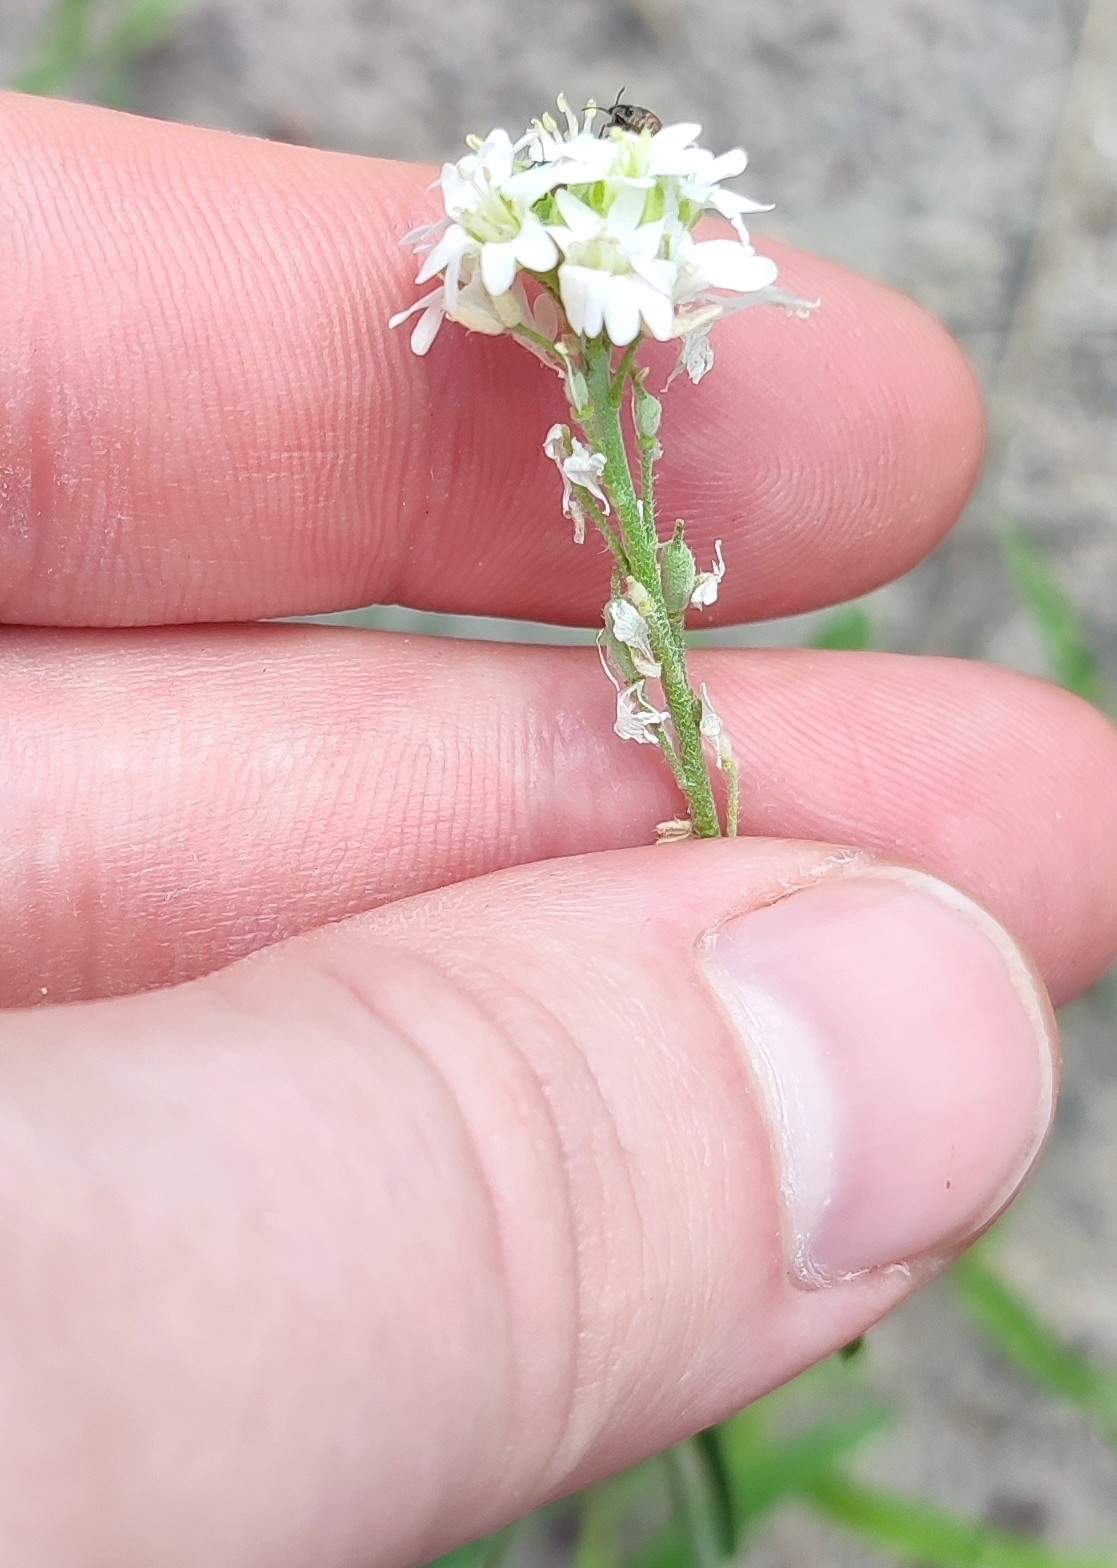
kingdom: Plantae
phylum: Tracheophyta
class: Magnoliopsida
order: Brassicales
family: Brassicaceae
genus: Berteroa
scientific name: Berteroa incana
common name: Hoary alison
